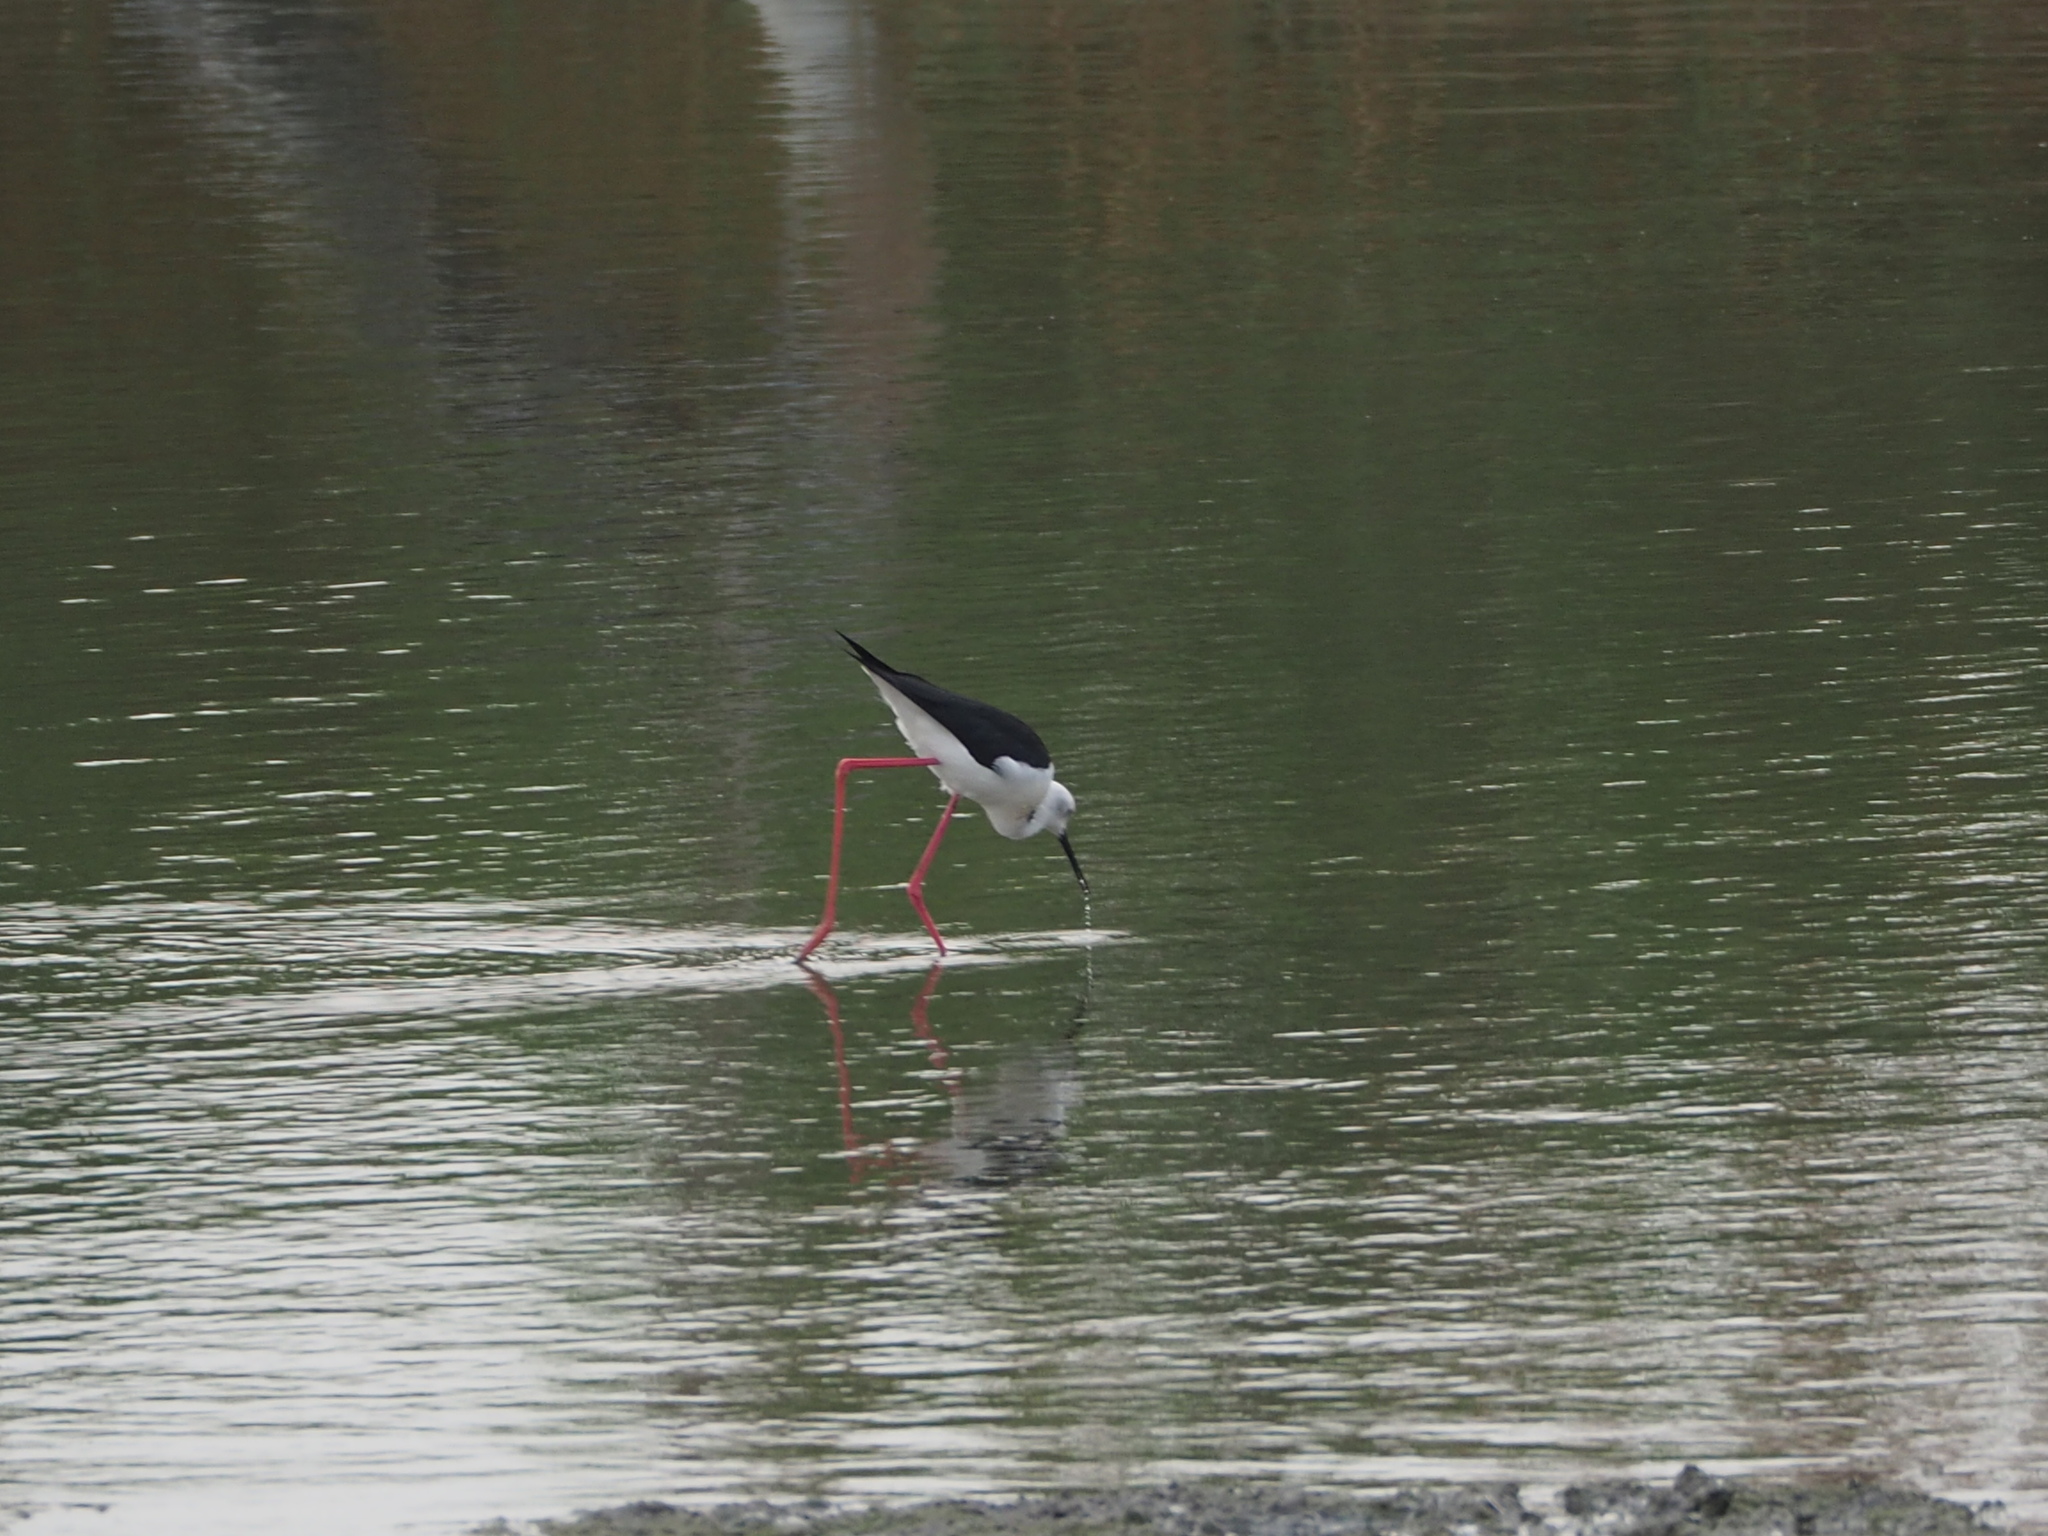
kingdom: Animalia
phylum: Chordata
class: Aves
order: Charadriiformes
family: Recurvirostridae
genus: Himantopus
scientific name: Himantopus himantopus
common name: Black-winged stilt
